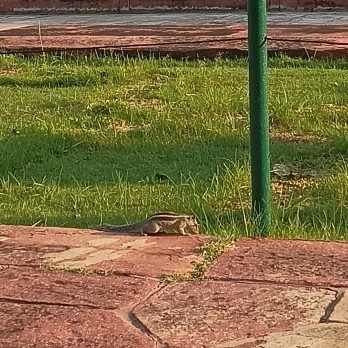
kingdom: Animalia
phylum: Chordata
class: Mammalia
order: Rodentia
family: Sciuridae
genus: Funambulus
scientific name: Funambulus pennantii
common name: Northern palm squirrel
